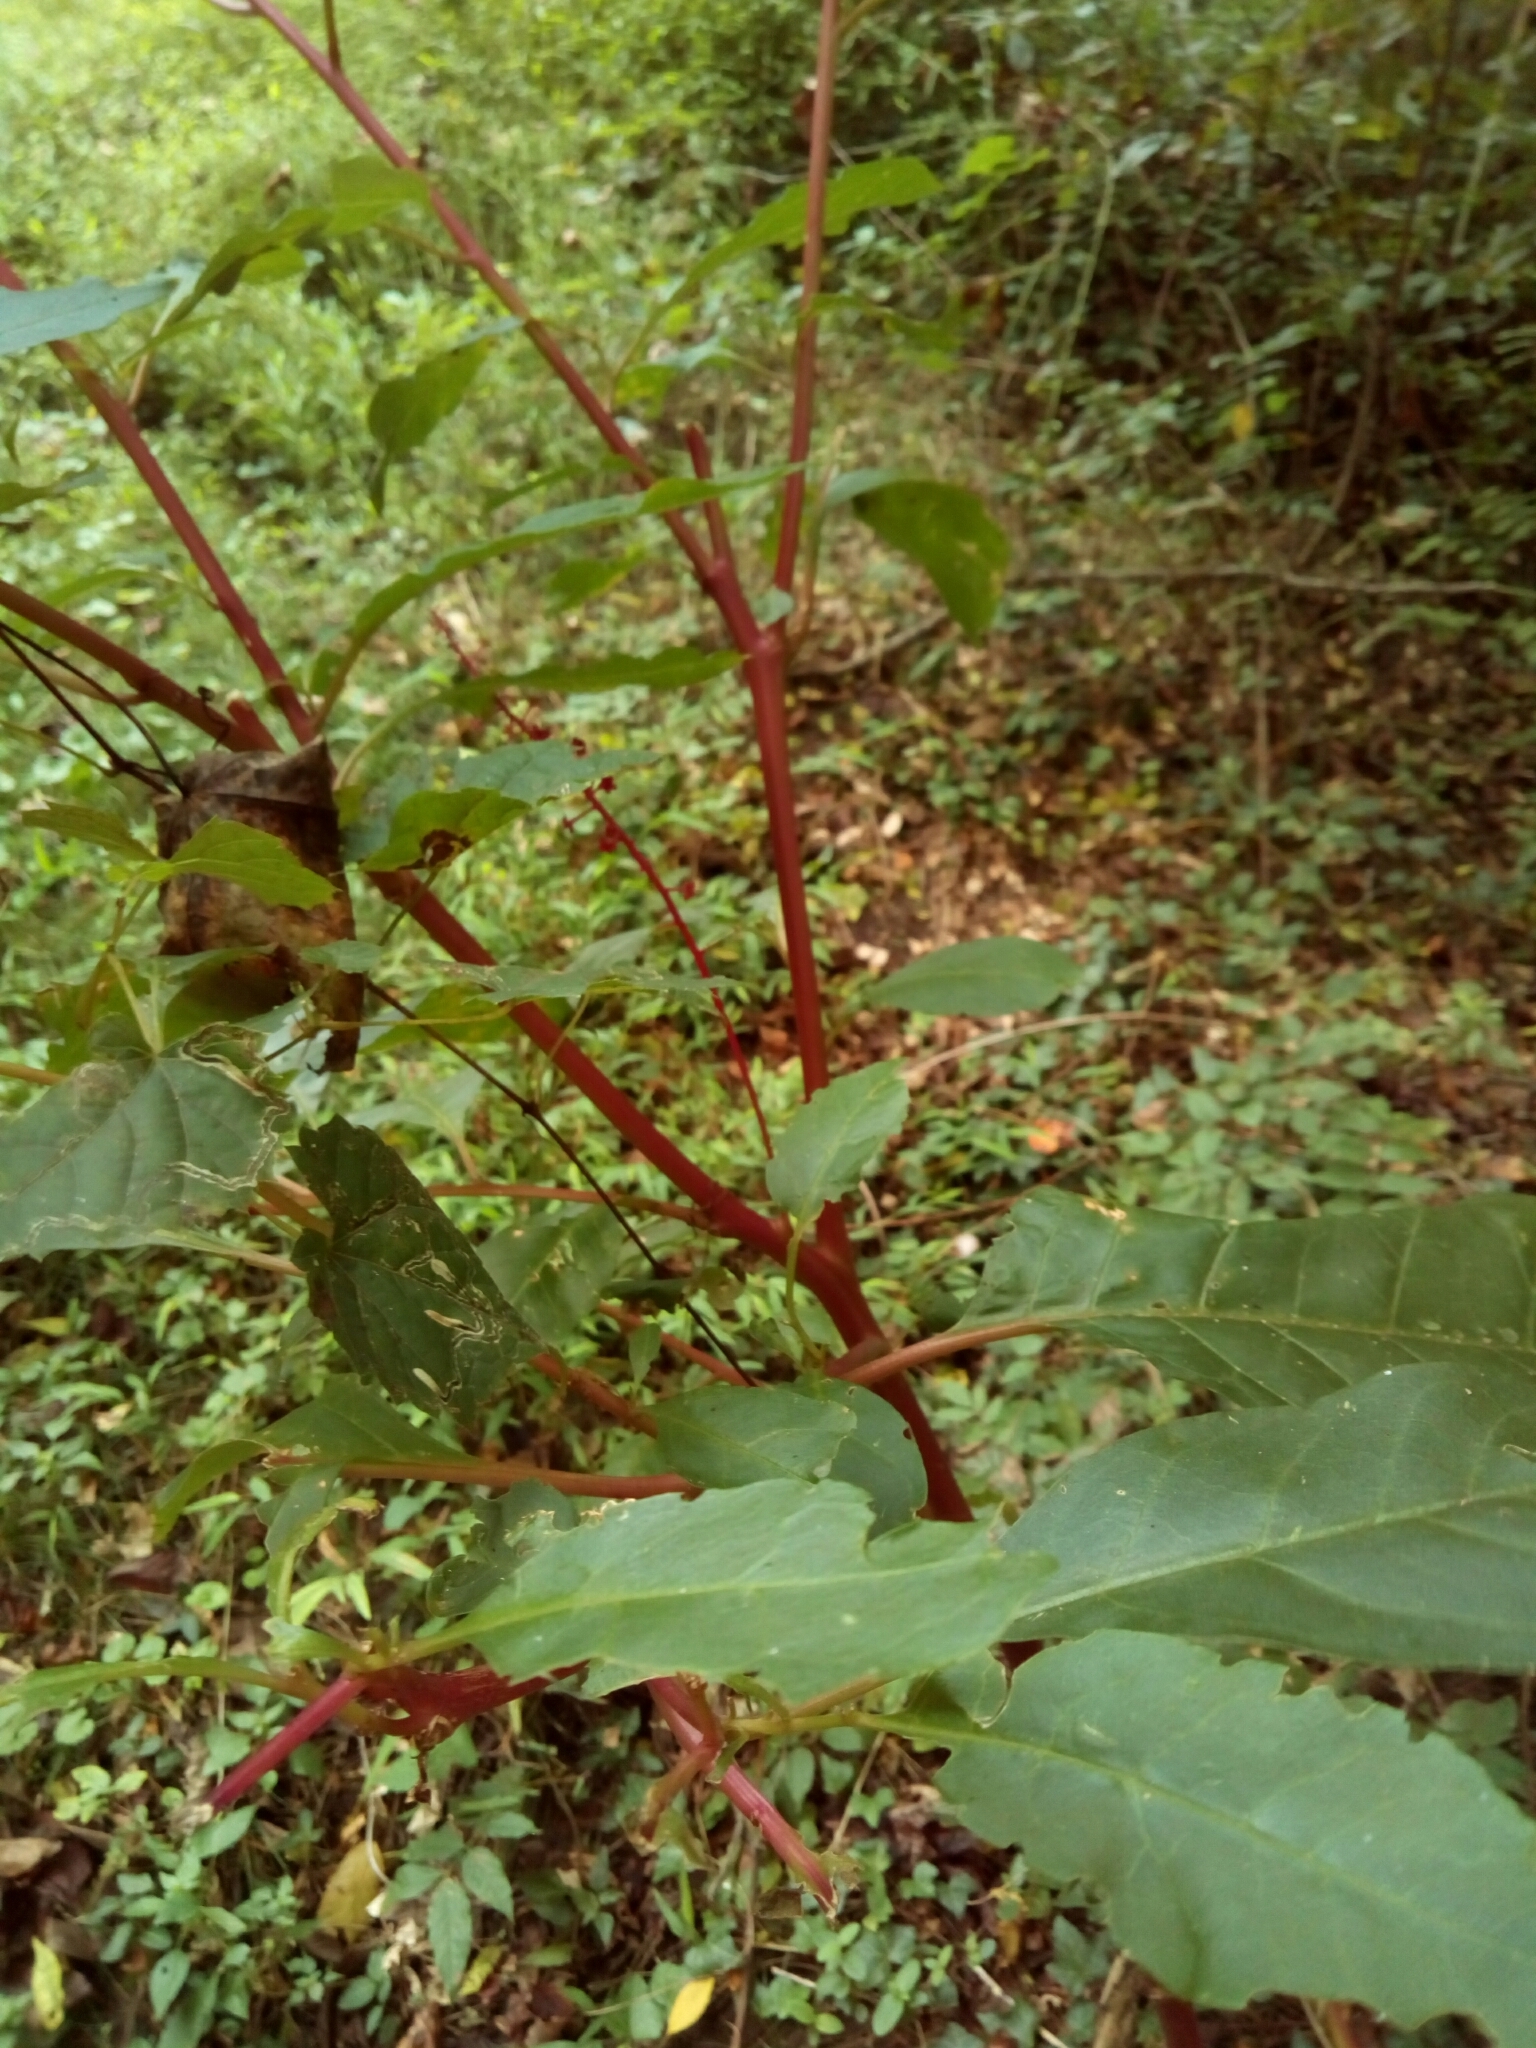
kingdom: Plantae
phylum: Tracheophyta
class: Magnoliopsida
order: Caryophyllales
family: Phytolaccaceae
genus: Phytolacca
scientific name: Phytolacca americana
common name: American pokeweed
